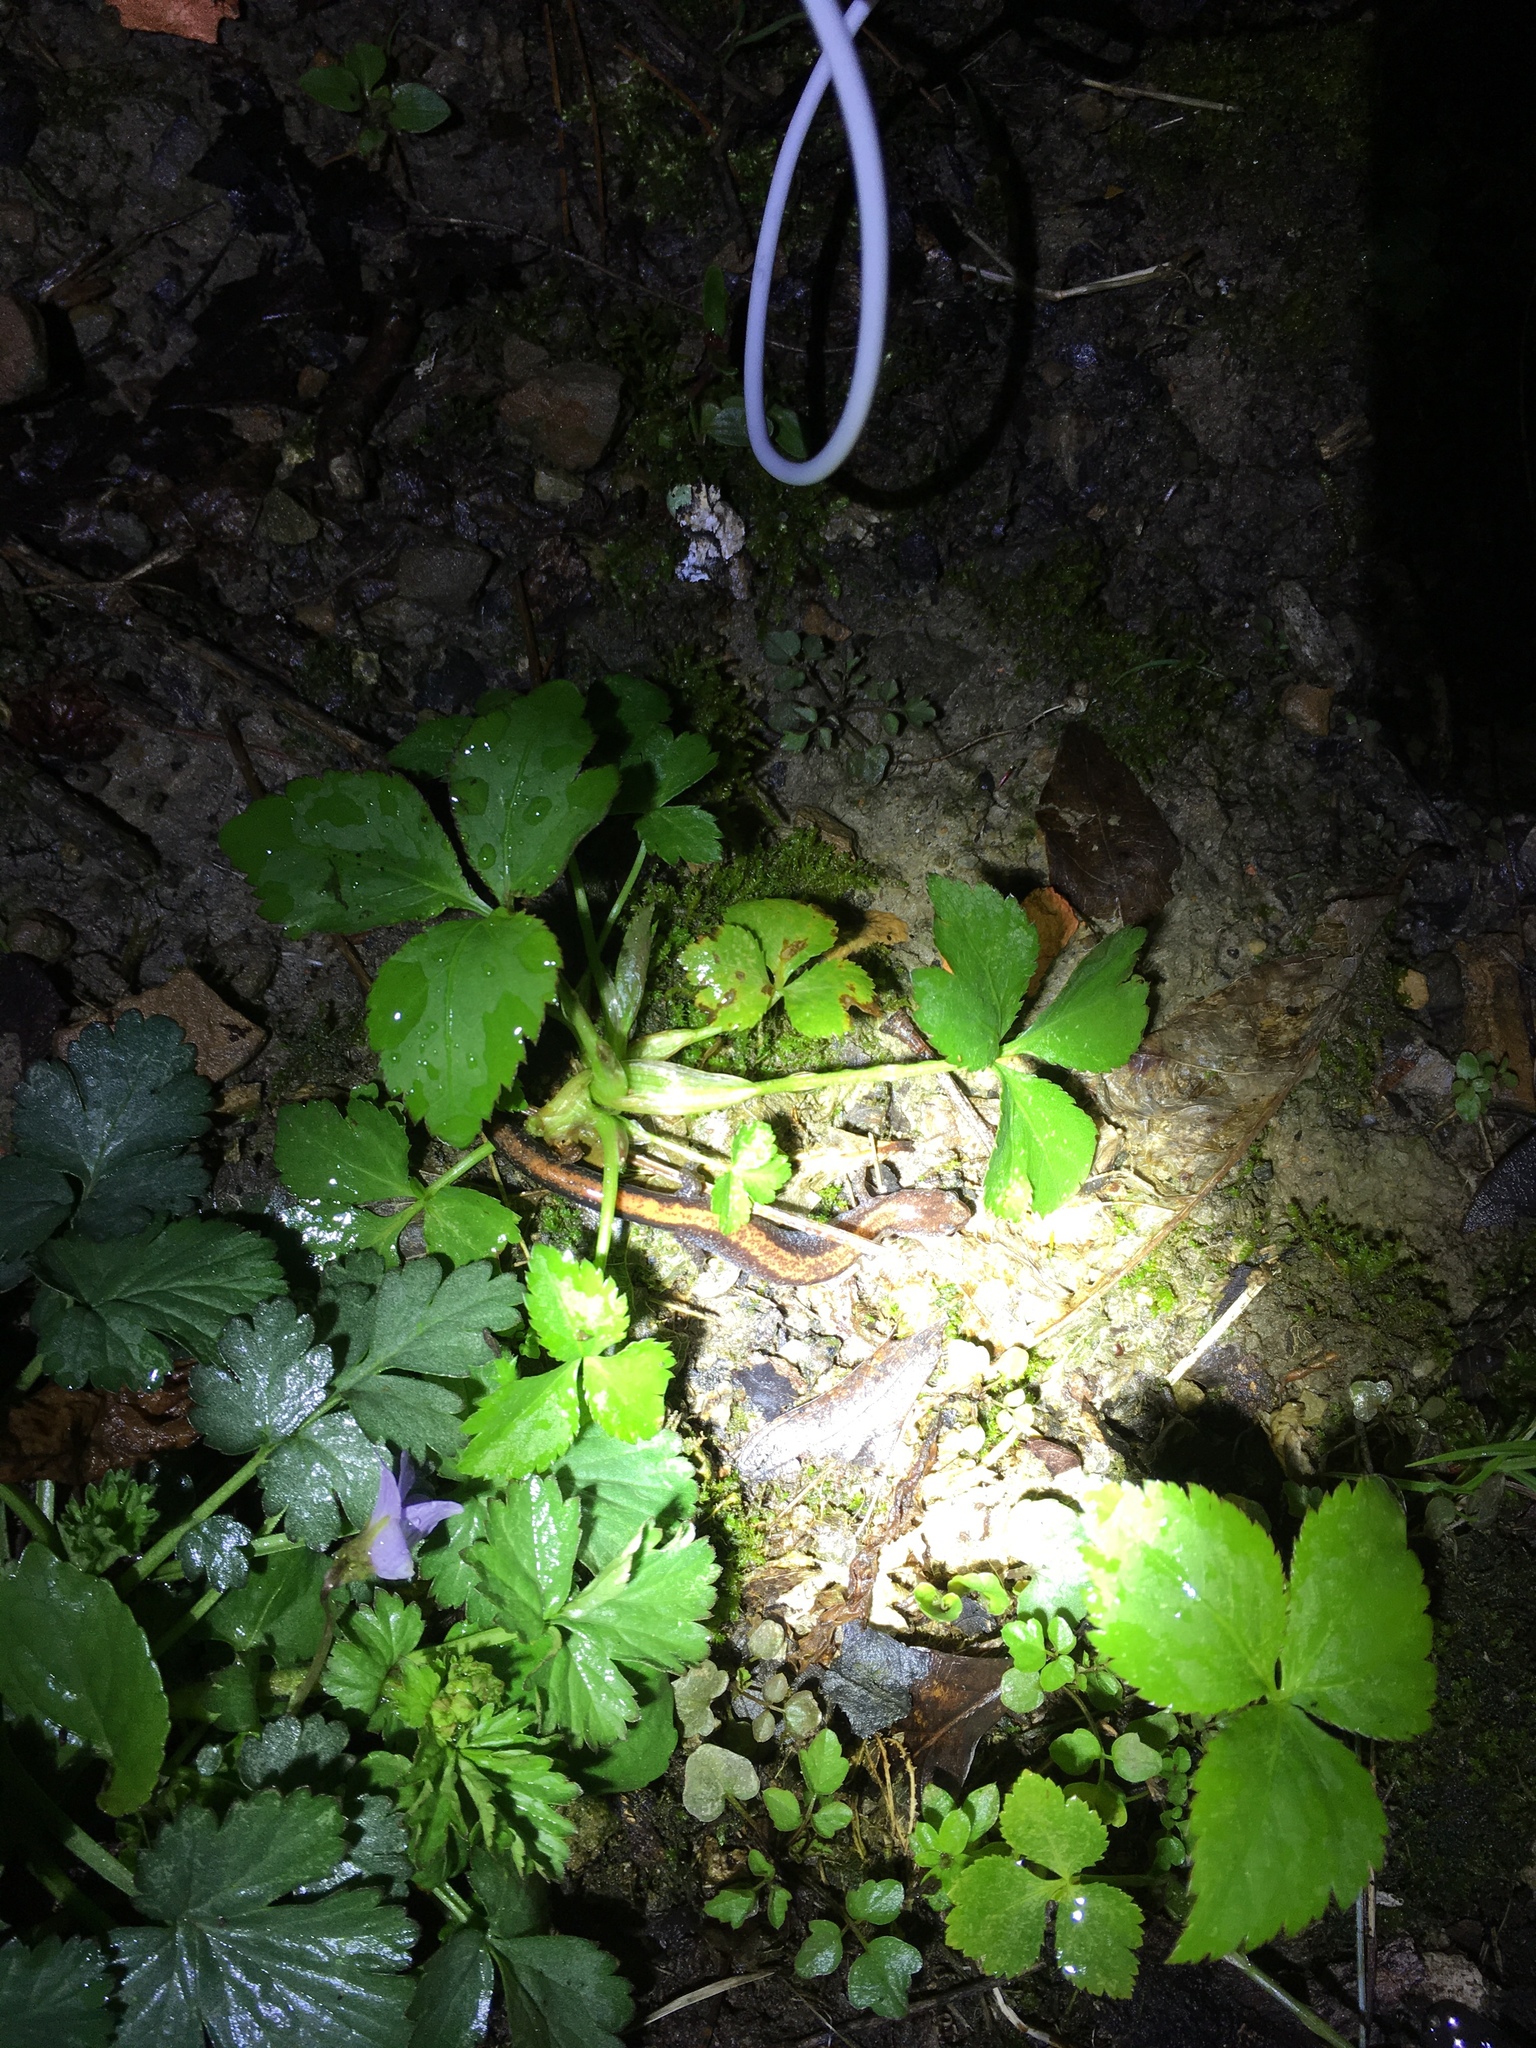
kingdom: Animalia
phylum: Chordata
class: Amphibia
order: Caudata
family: Plethodontidae
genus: Plethodon
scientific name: Plethodon cinereus
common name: Redback salamander
